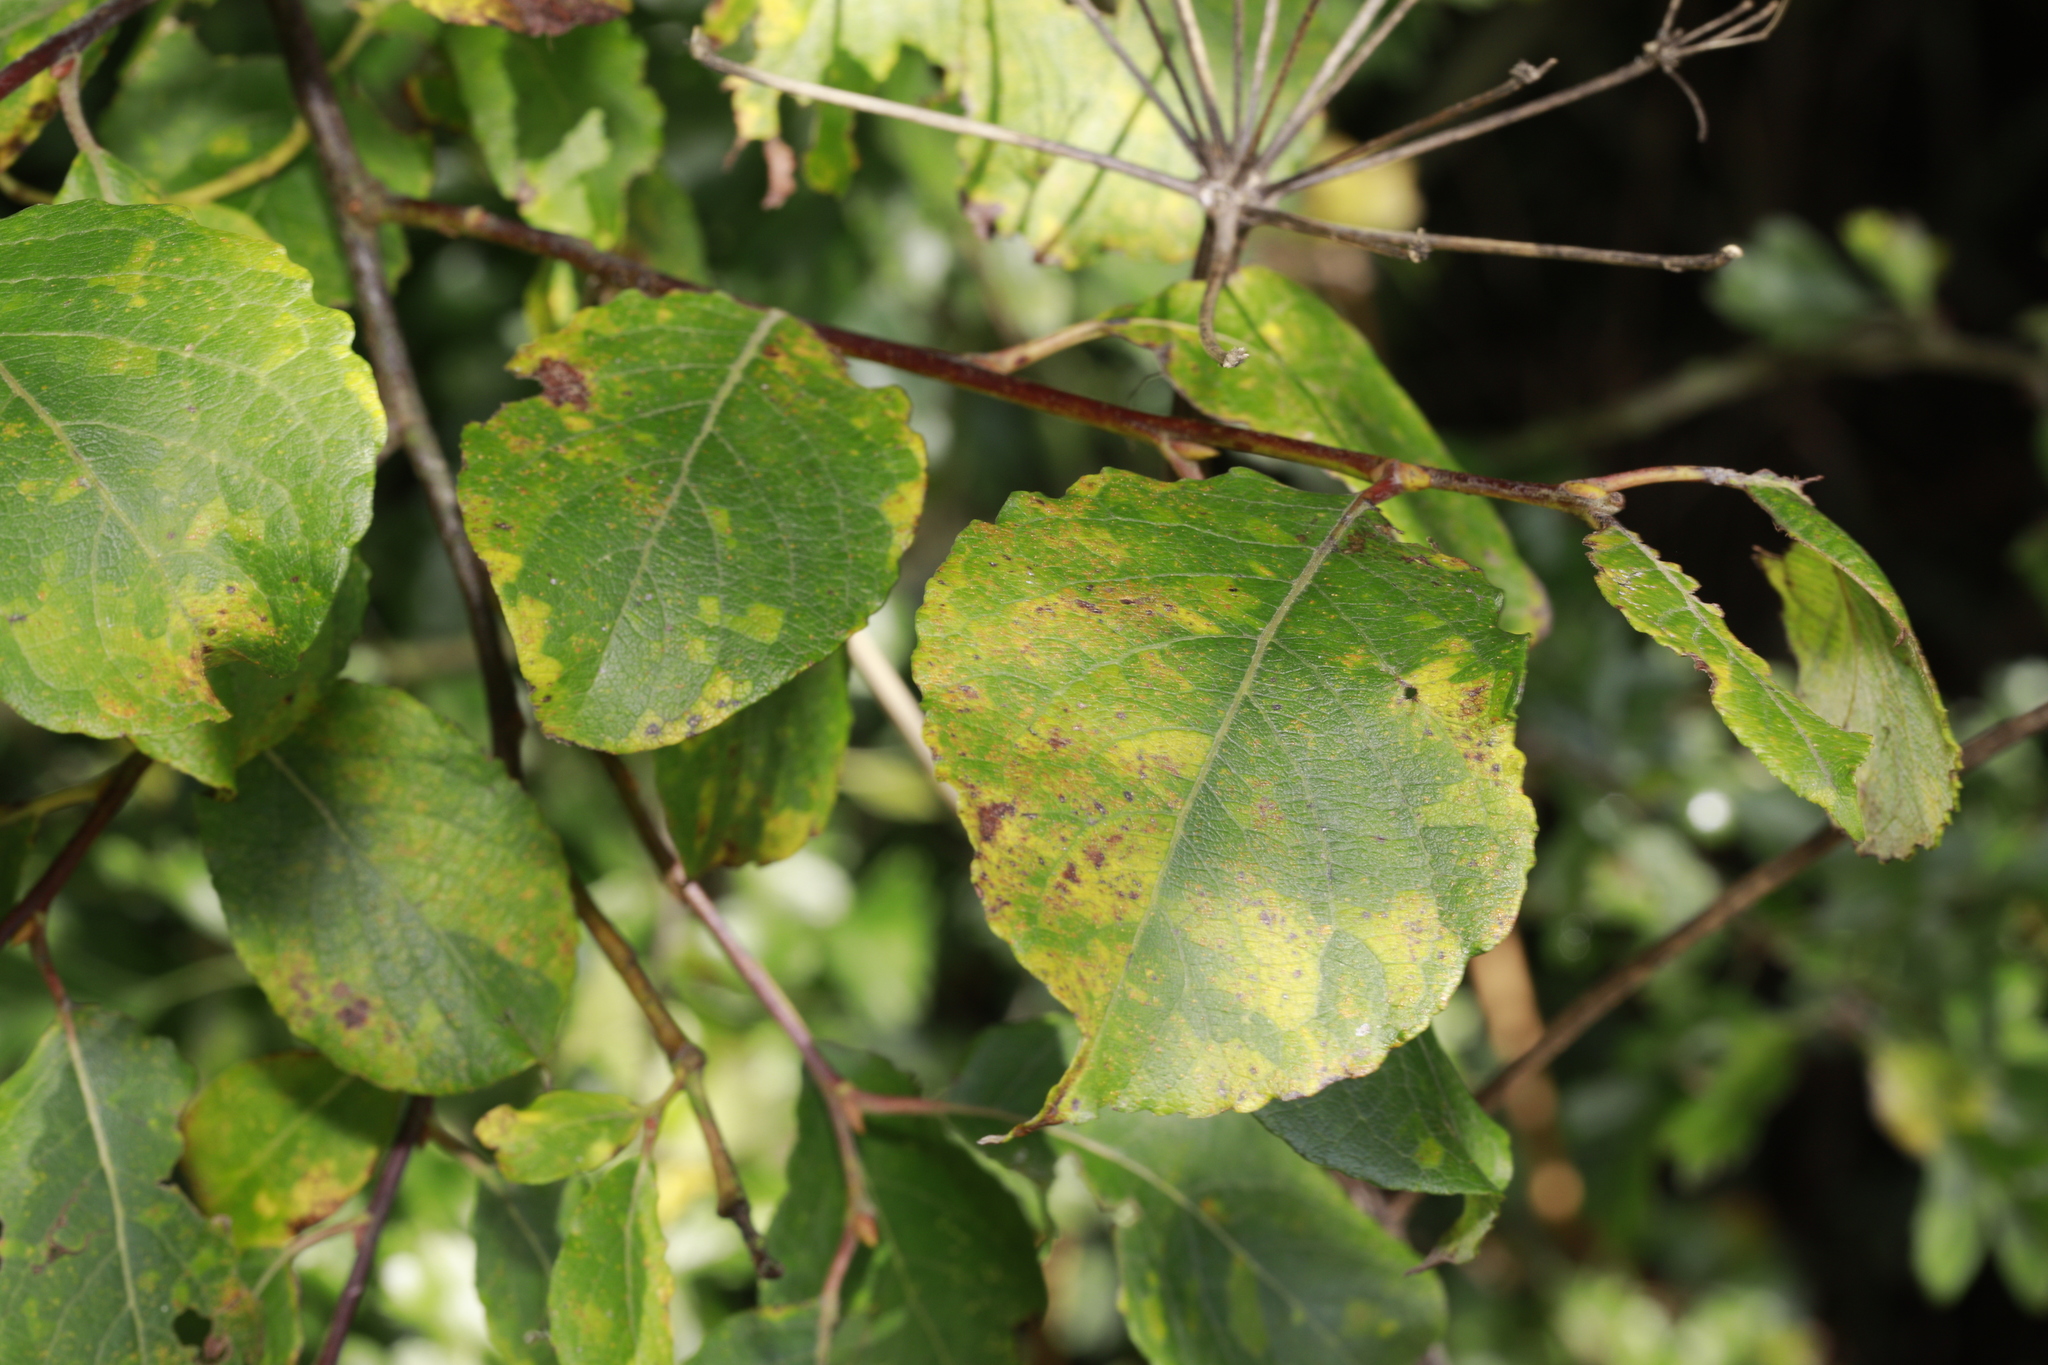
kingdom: Plantae
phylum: Tracheophyta
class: Magnoliopsida
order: Malpighiales
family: Salicaceae
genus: Salix
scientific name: Salix caprea
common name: Goat willow
